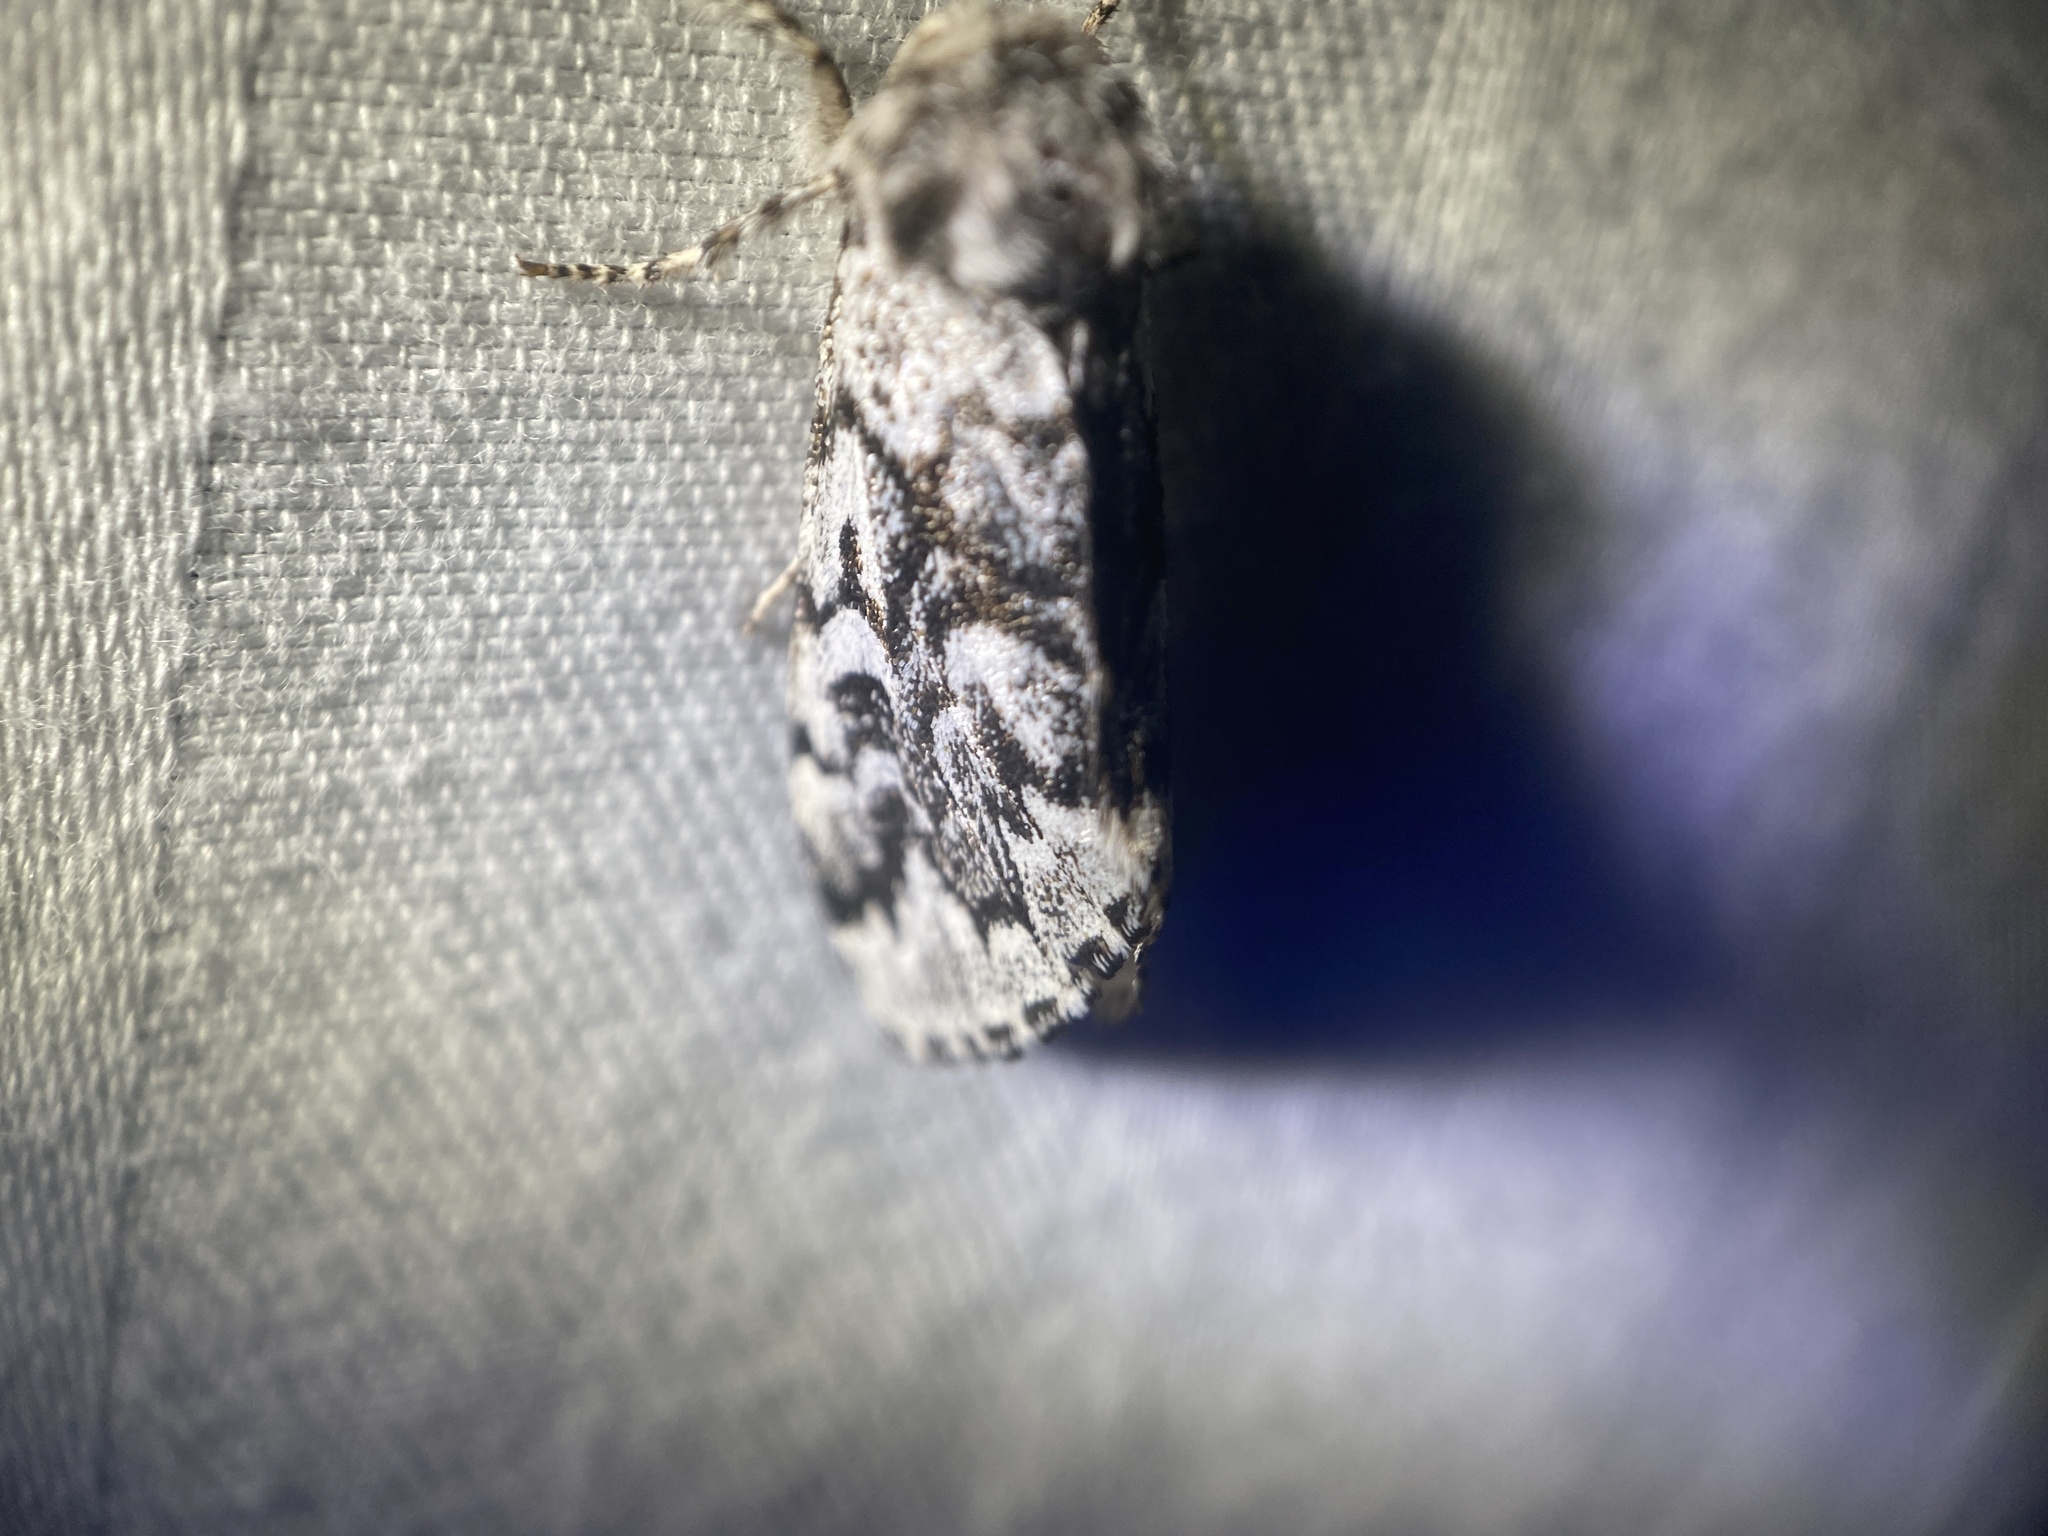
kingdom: Animalia
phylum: Arthropoda
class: Insecta
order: Lepidoptera
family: Noctuidae
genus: Panthea
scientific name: Panthea acronyctoides
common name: Black zigzag moth
